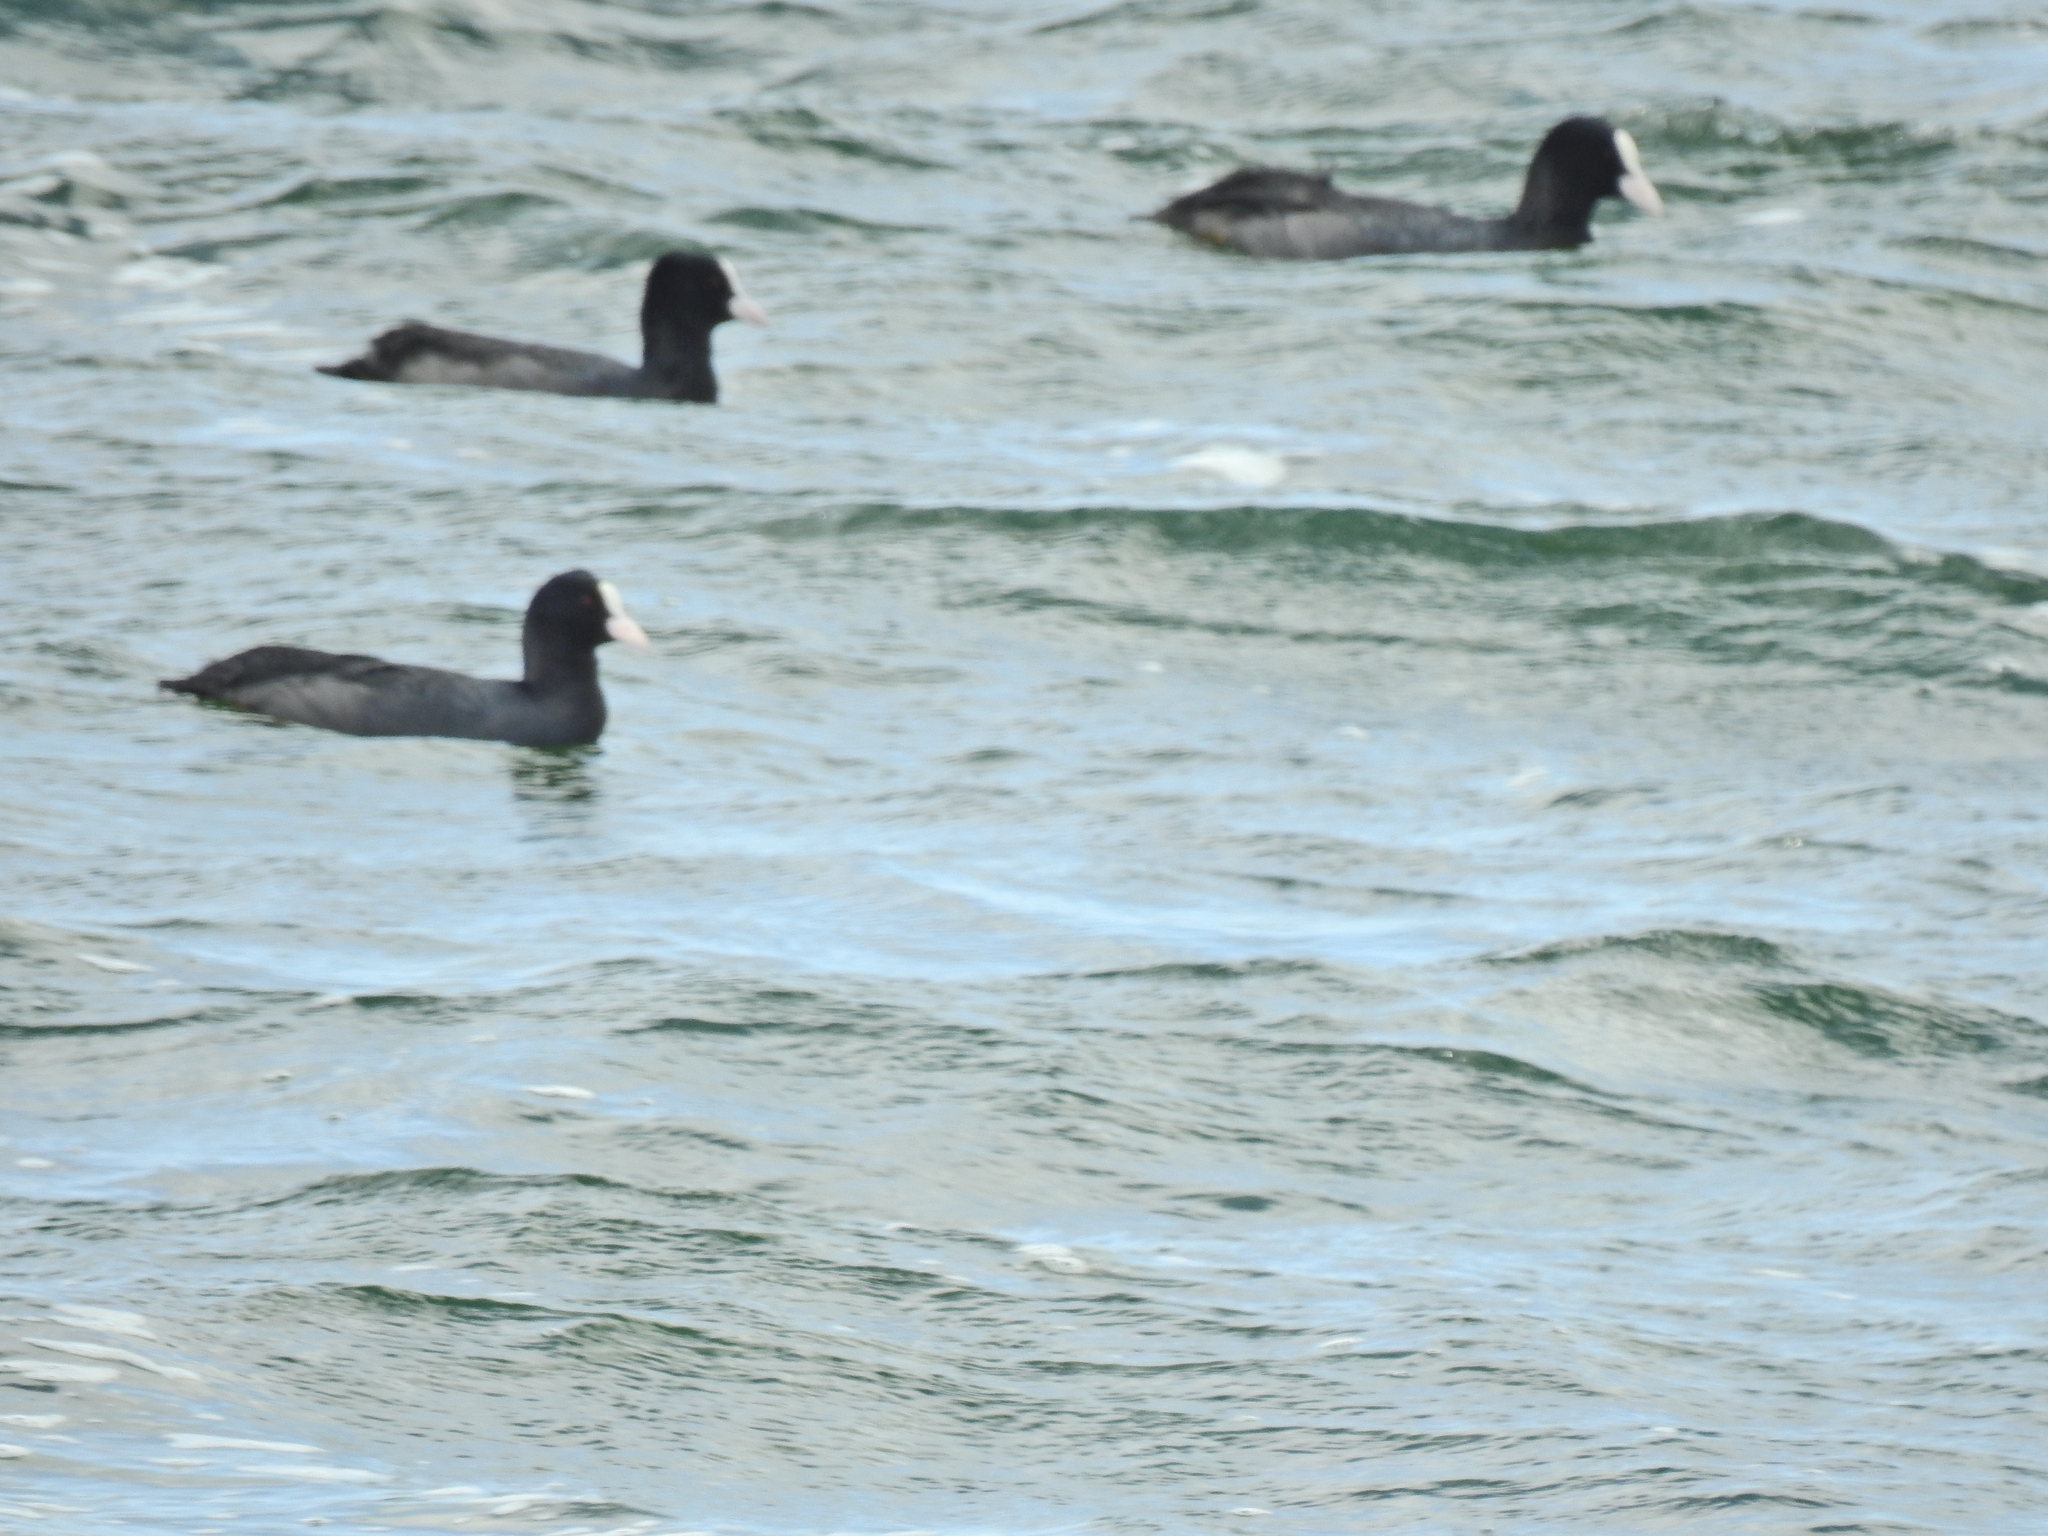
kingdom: Animalia
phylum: Chordata
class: Aves
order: Gruiformes
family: Rallidae
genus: Fulica
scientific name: Fulica atra
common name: Eurasian coot
